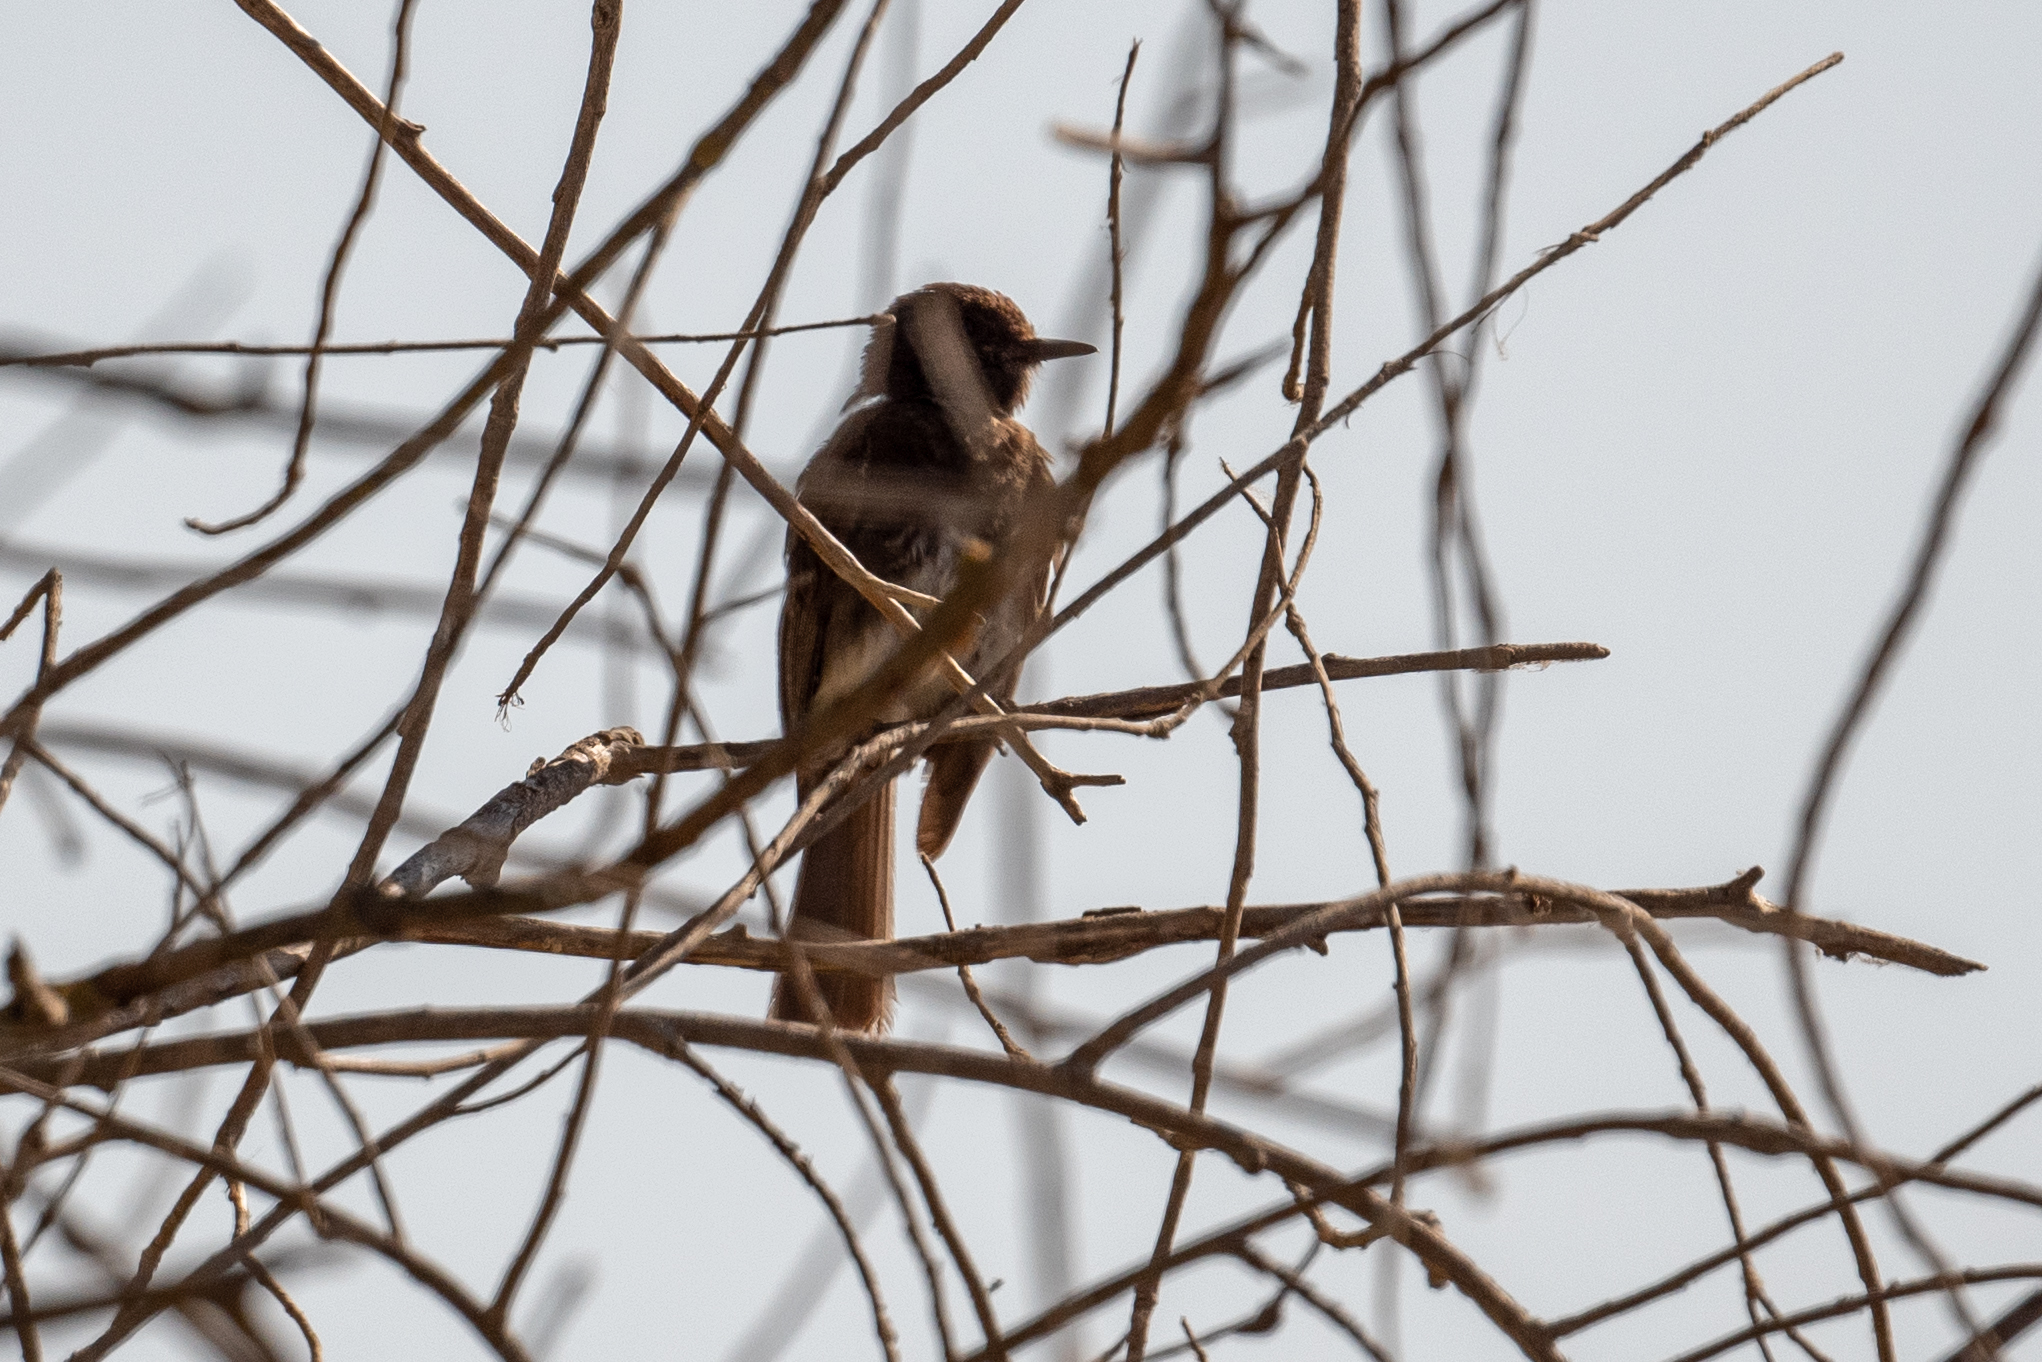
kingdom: Animalia
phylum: Chordata
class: Aves
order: Passeriformes
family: Tyrannidae
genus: Sayornis
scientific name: Sayornis nigricans
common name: Black phoebe
